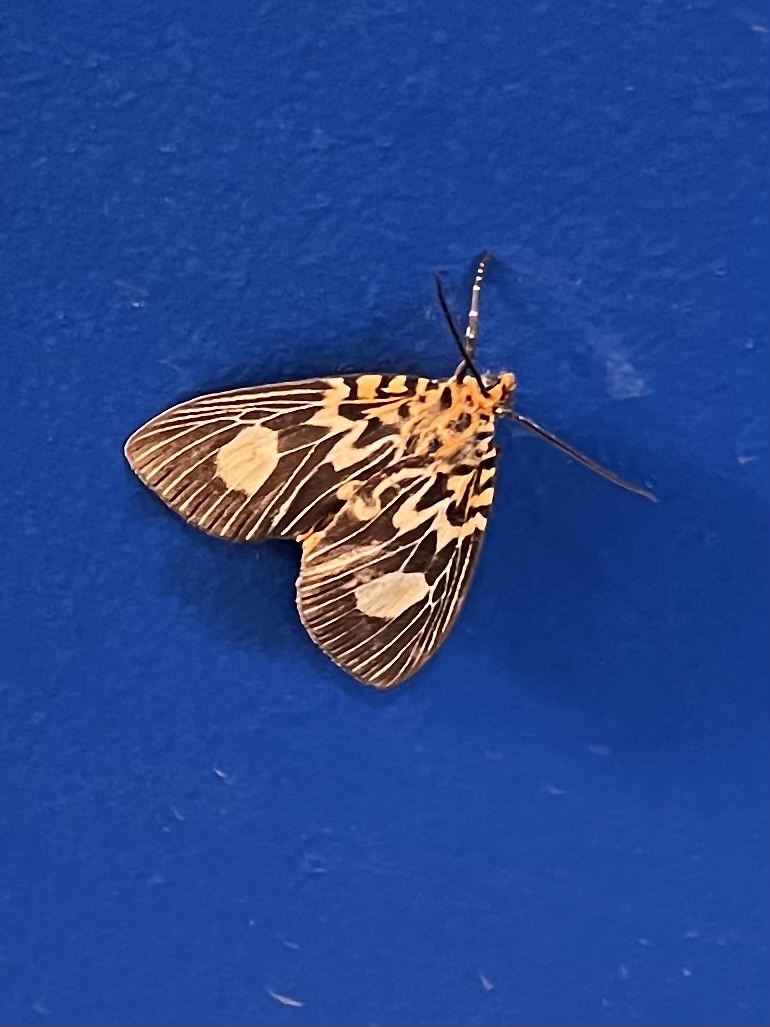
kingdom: Animalia
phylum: Arthropoda
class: Insecta
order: Lepidoptera
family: Erebidae
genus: Asota
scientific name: Asota plagiata
